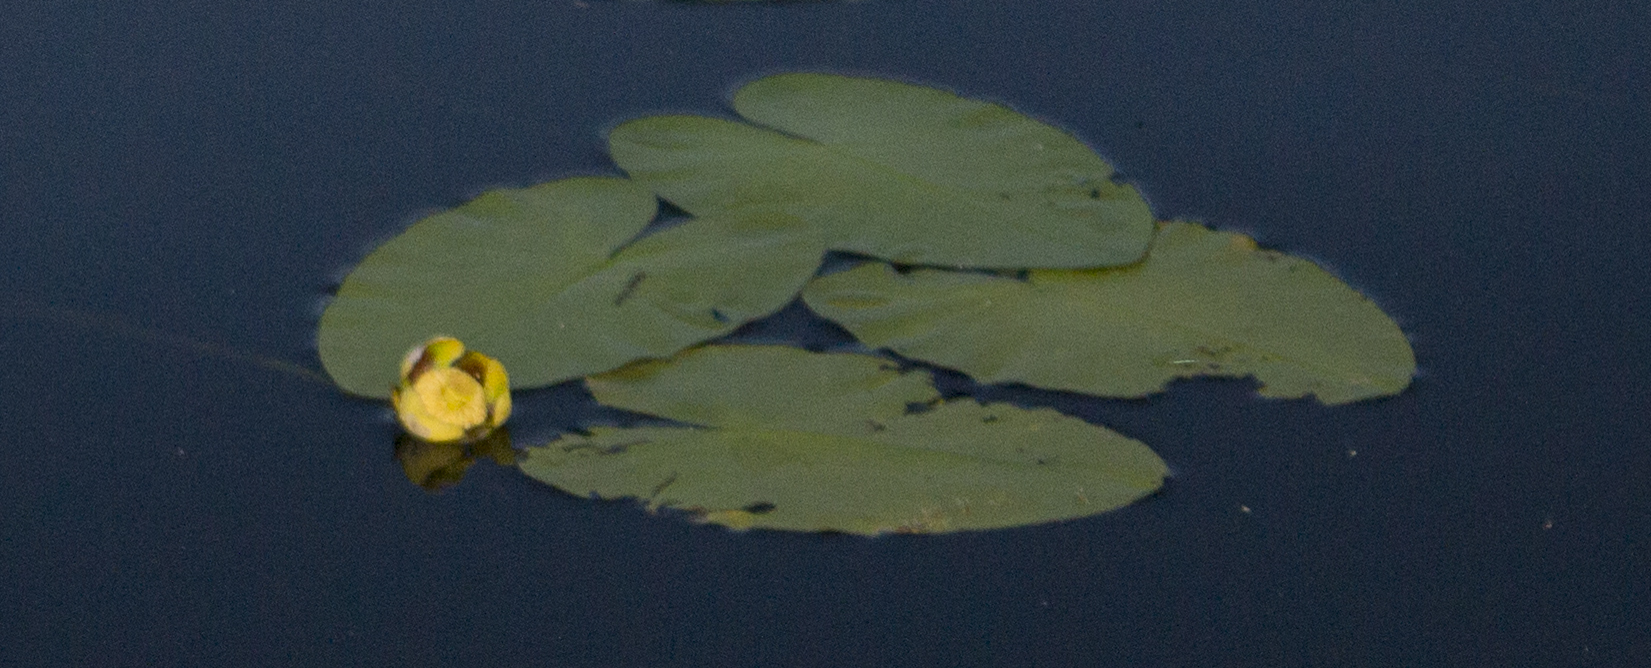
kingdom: Plantae
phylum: Tracheophyta
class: Magnoliopsida
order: Nymphaeales
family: Nymphaeaceae
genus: Nuphar
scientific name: Nuphar variegata
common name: Beaver-root
